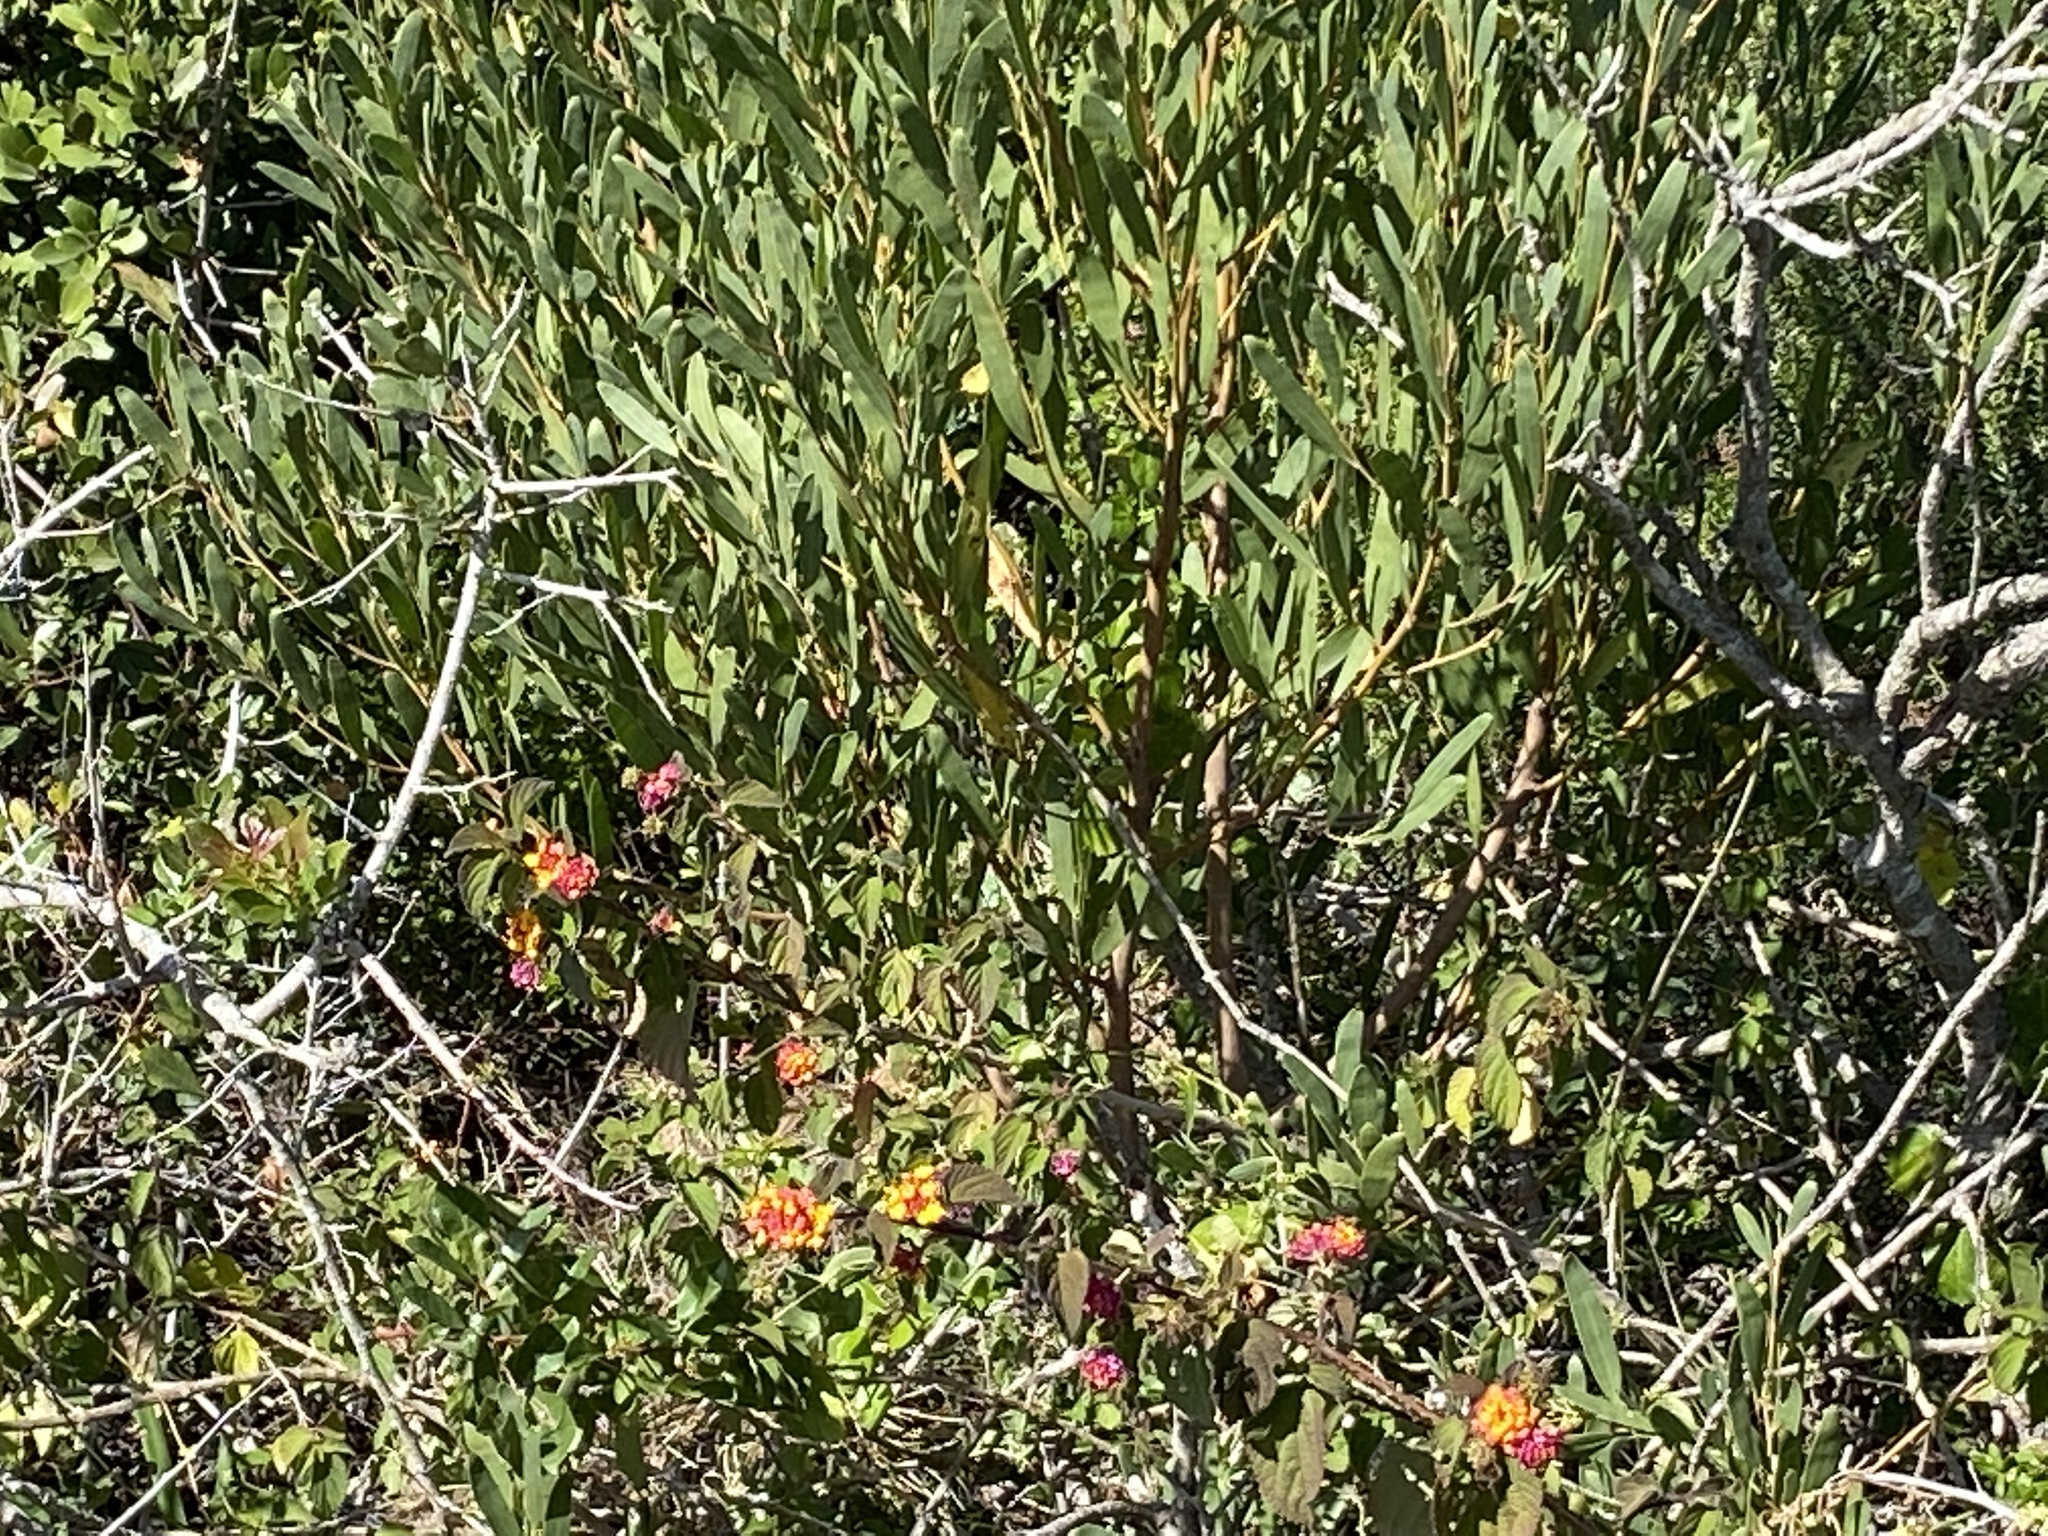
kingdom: Plantae
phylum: Tracheophyta
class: Magnoliopsida
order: Fabales
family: Fabaceae
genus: Acacia
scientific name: Acacia cyclops
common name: Coastal wattle
